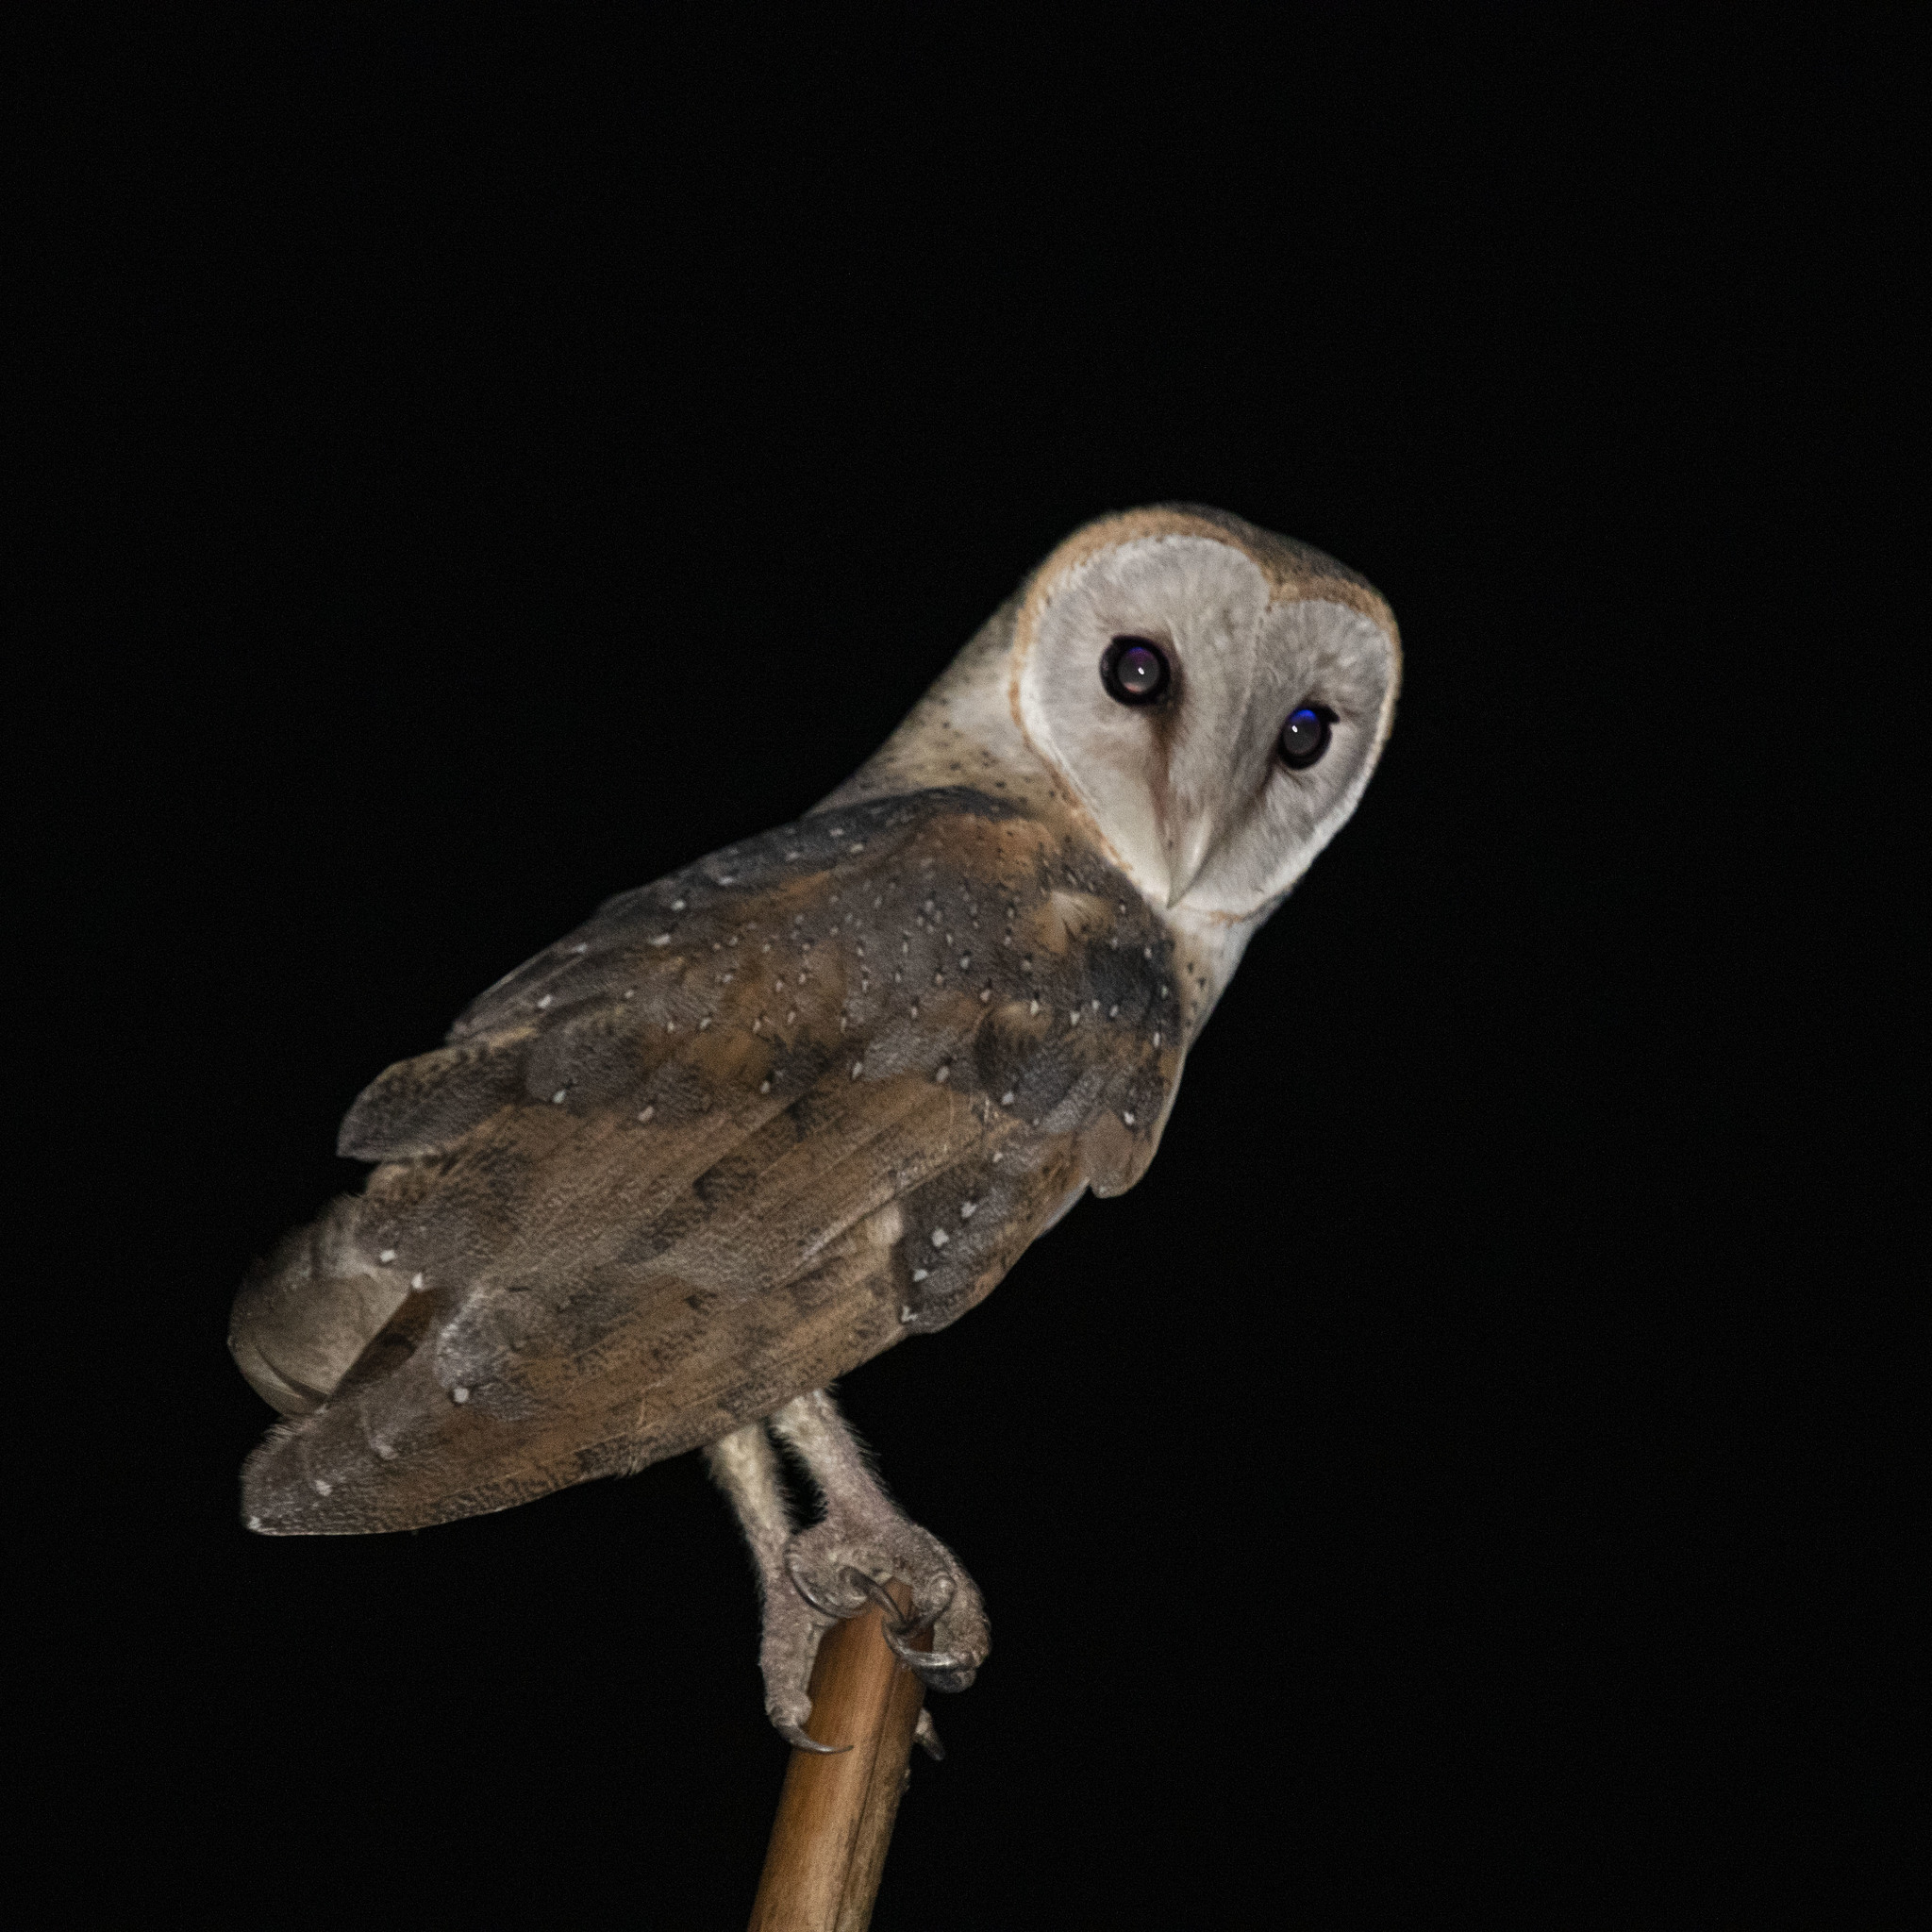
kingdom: Animalia
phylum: Chordata
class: Aves
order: Strigiformes
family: Tytonidae
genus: Tyto
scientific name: Tyto alba
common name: Barn owl
